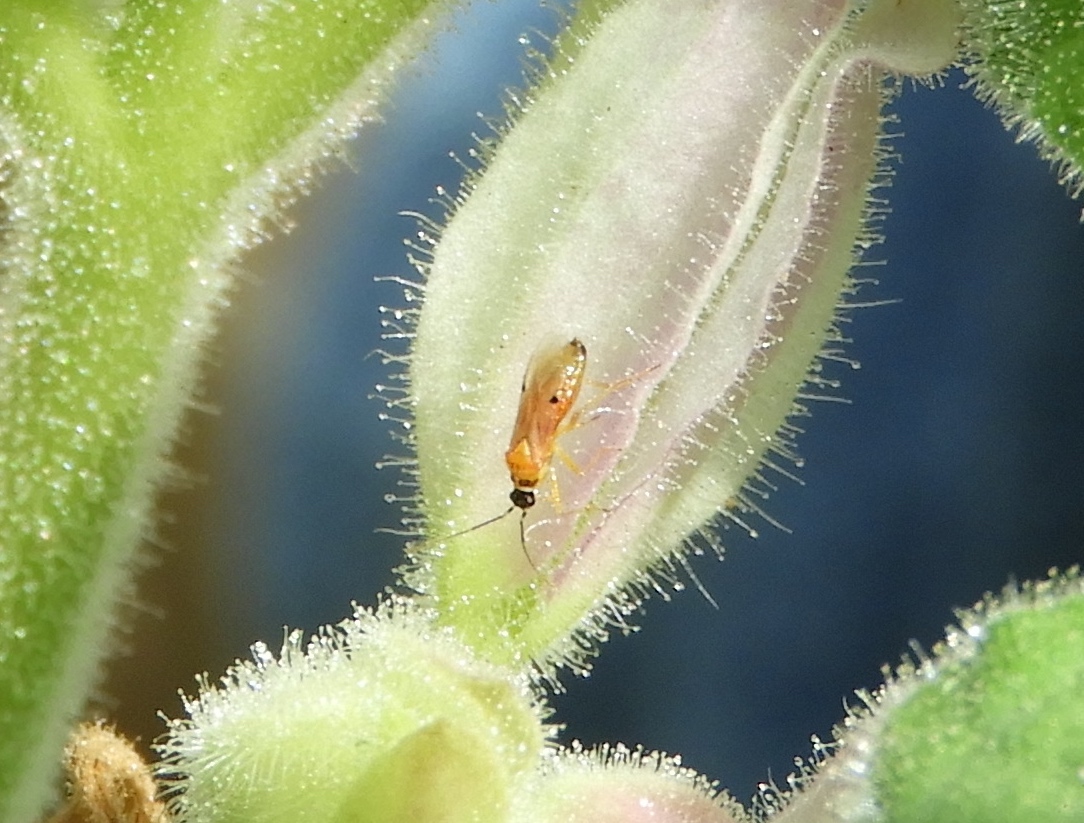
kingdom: Animalia
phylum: Arthropoda
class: Insecta
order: Hemiptera
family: Miridae
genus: Tupiocoris
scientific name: Tupiocoris notatus
